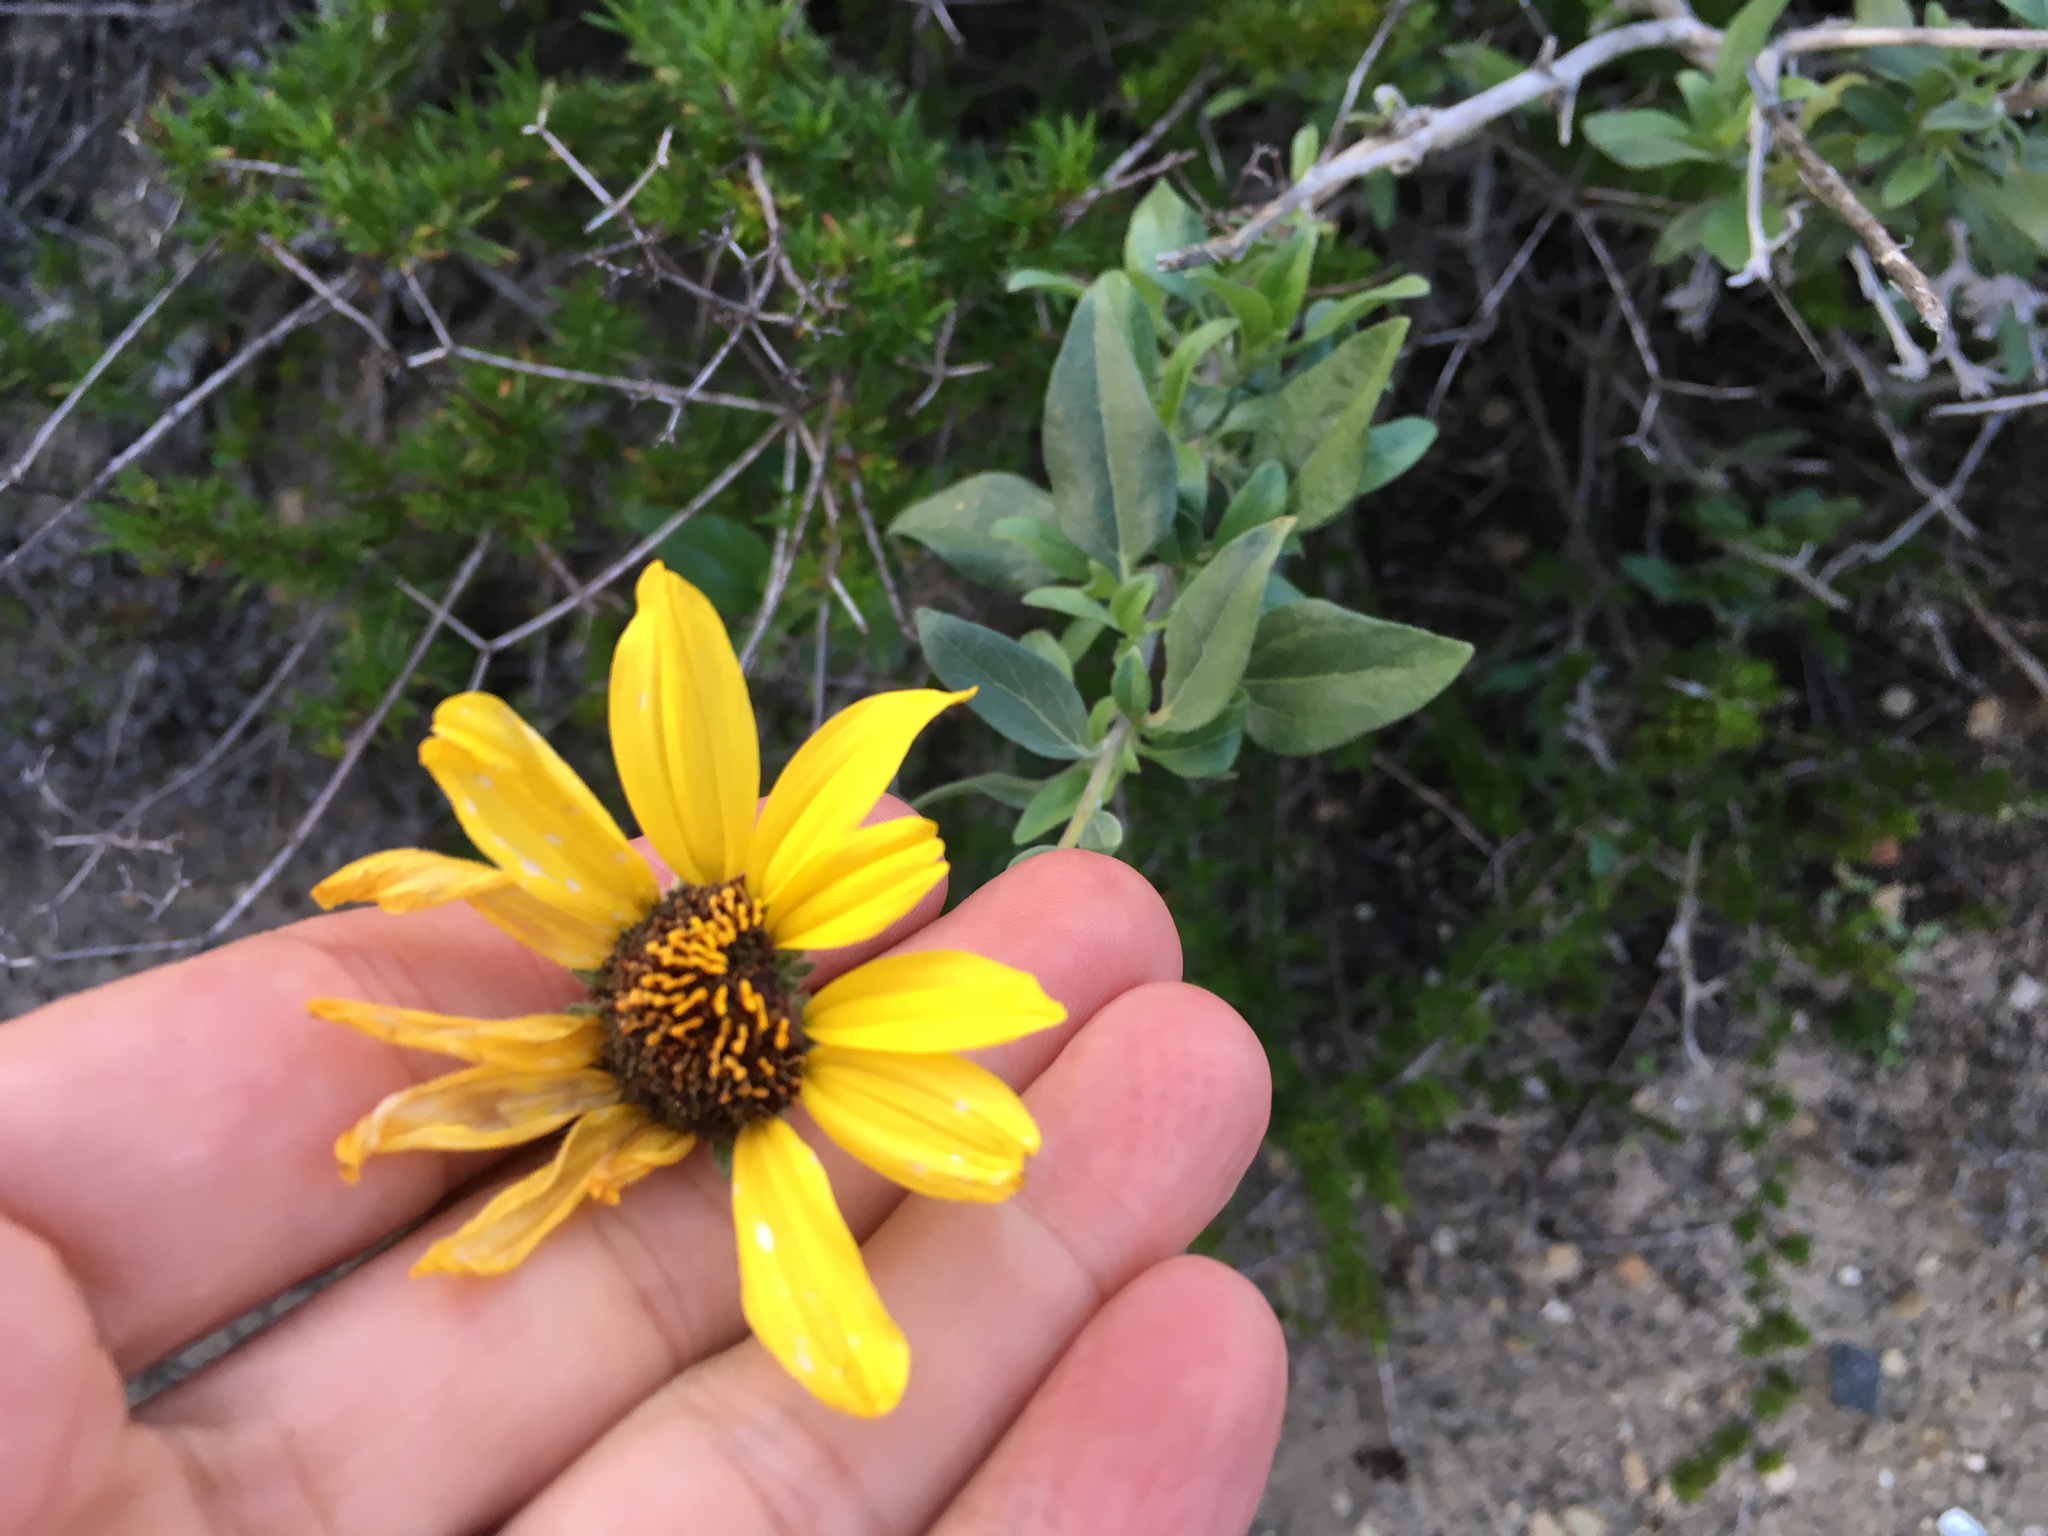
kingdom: Plantae
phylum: Tracheophyta
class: Magnoliopsida
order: Asterales
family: Asteraceae
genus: Encelia
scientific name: Encelia californica
